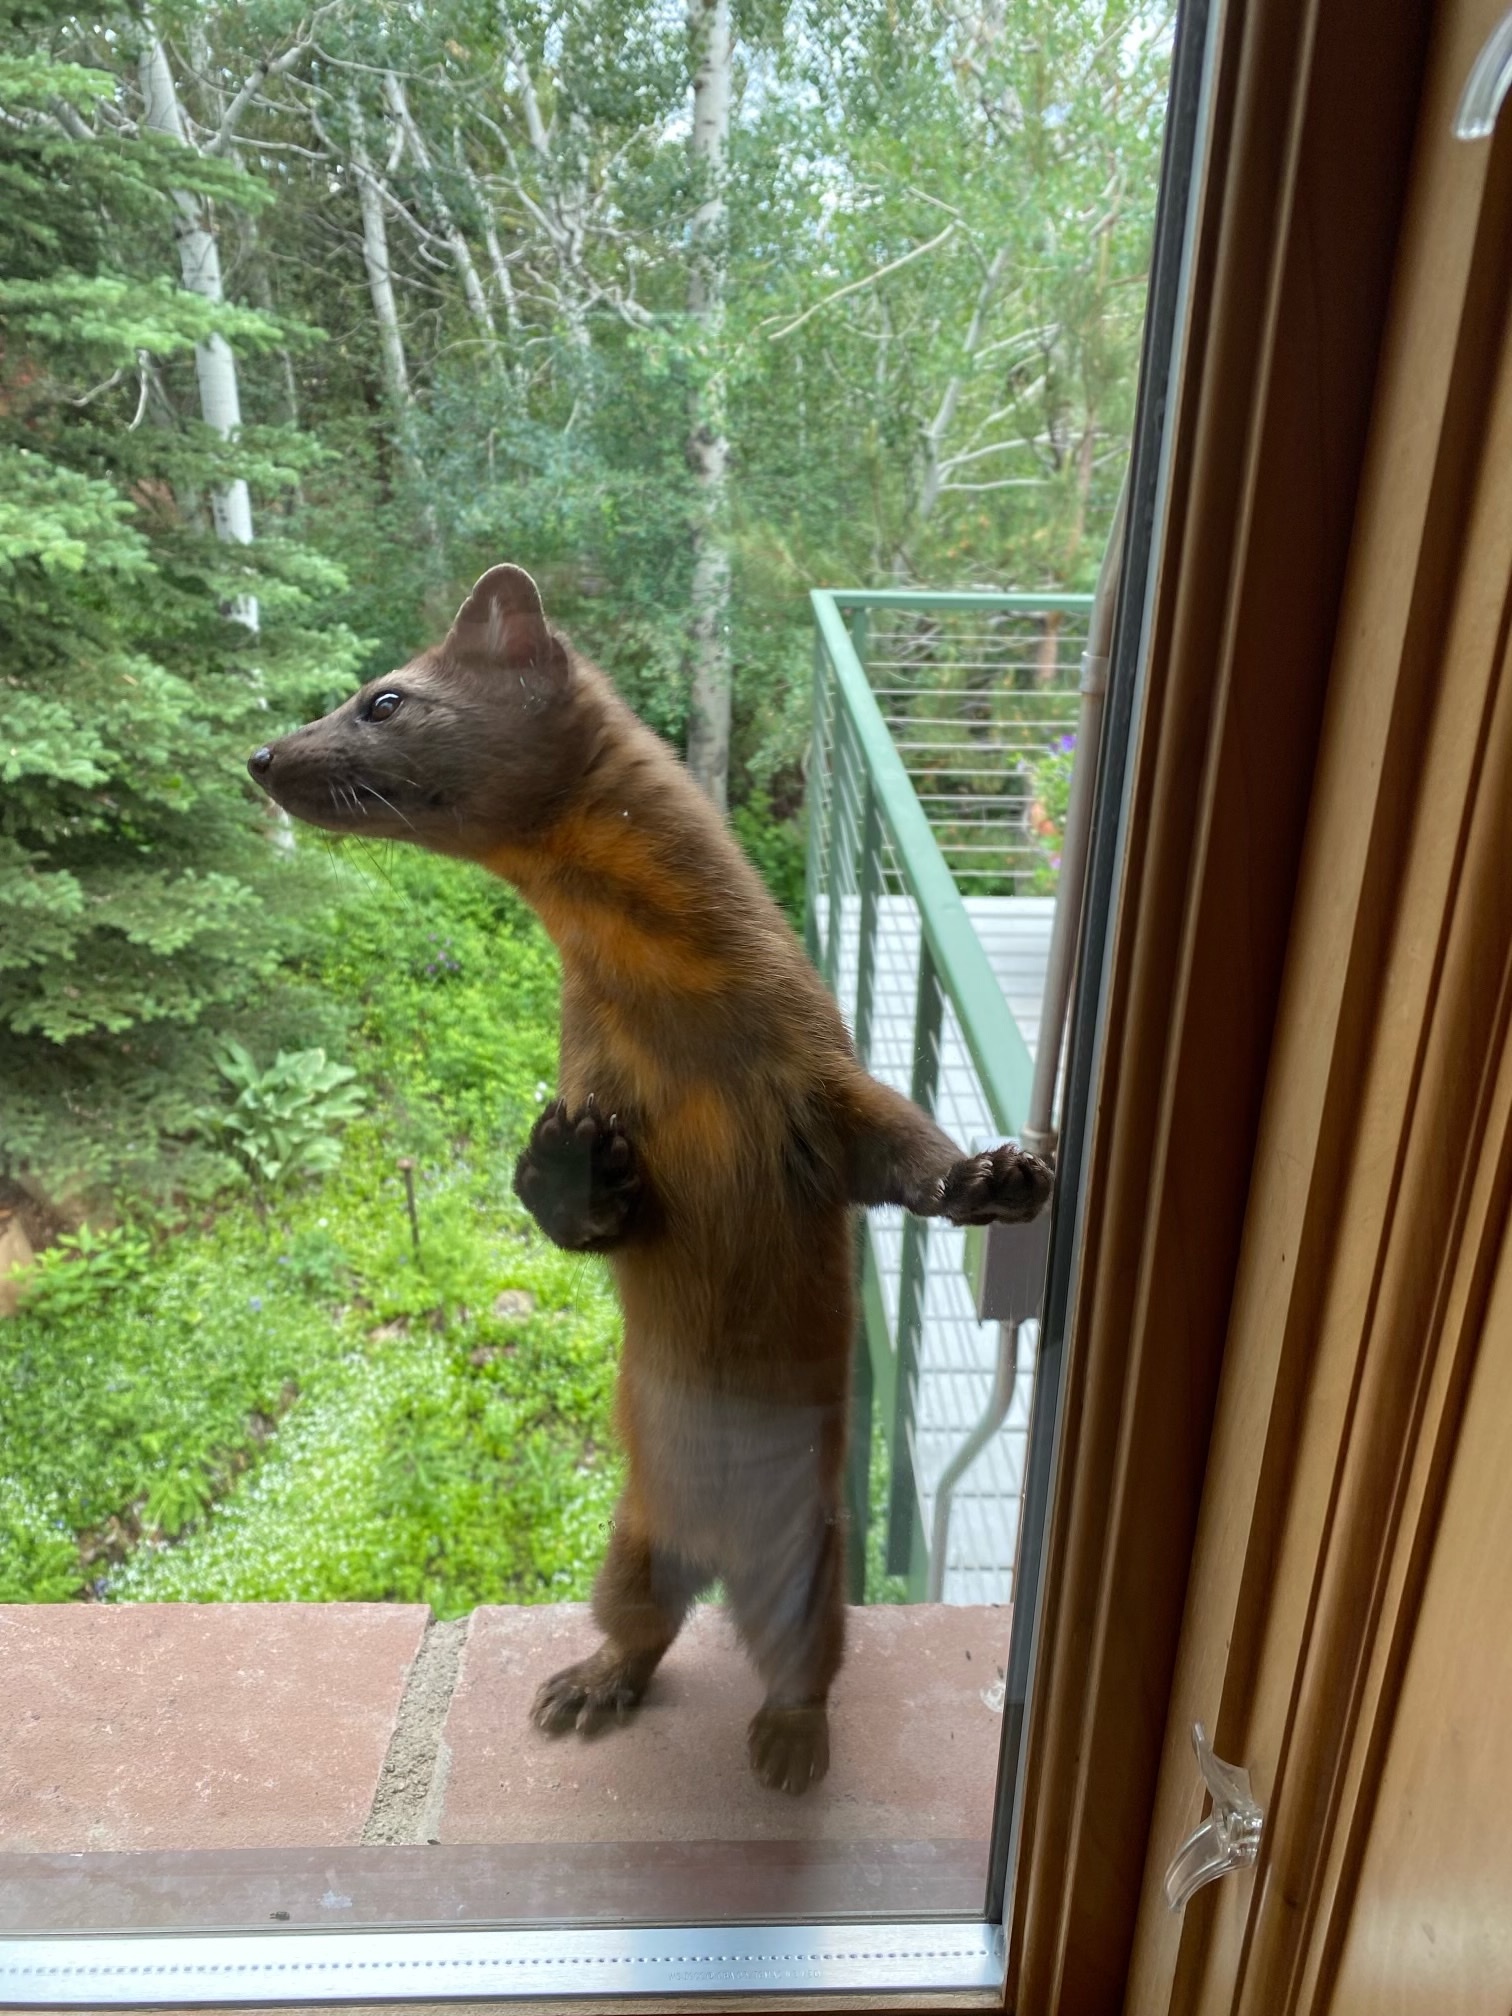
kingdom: Animalia
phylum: Chordata
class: Mammalia
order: Carnivora
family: Mustelidae
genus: Martes
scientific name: Martes caurina
